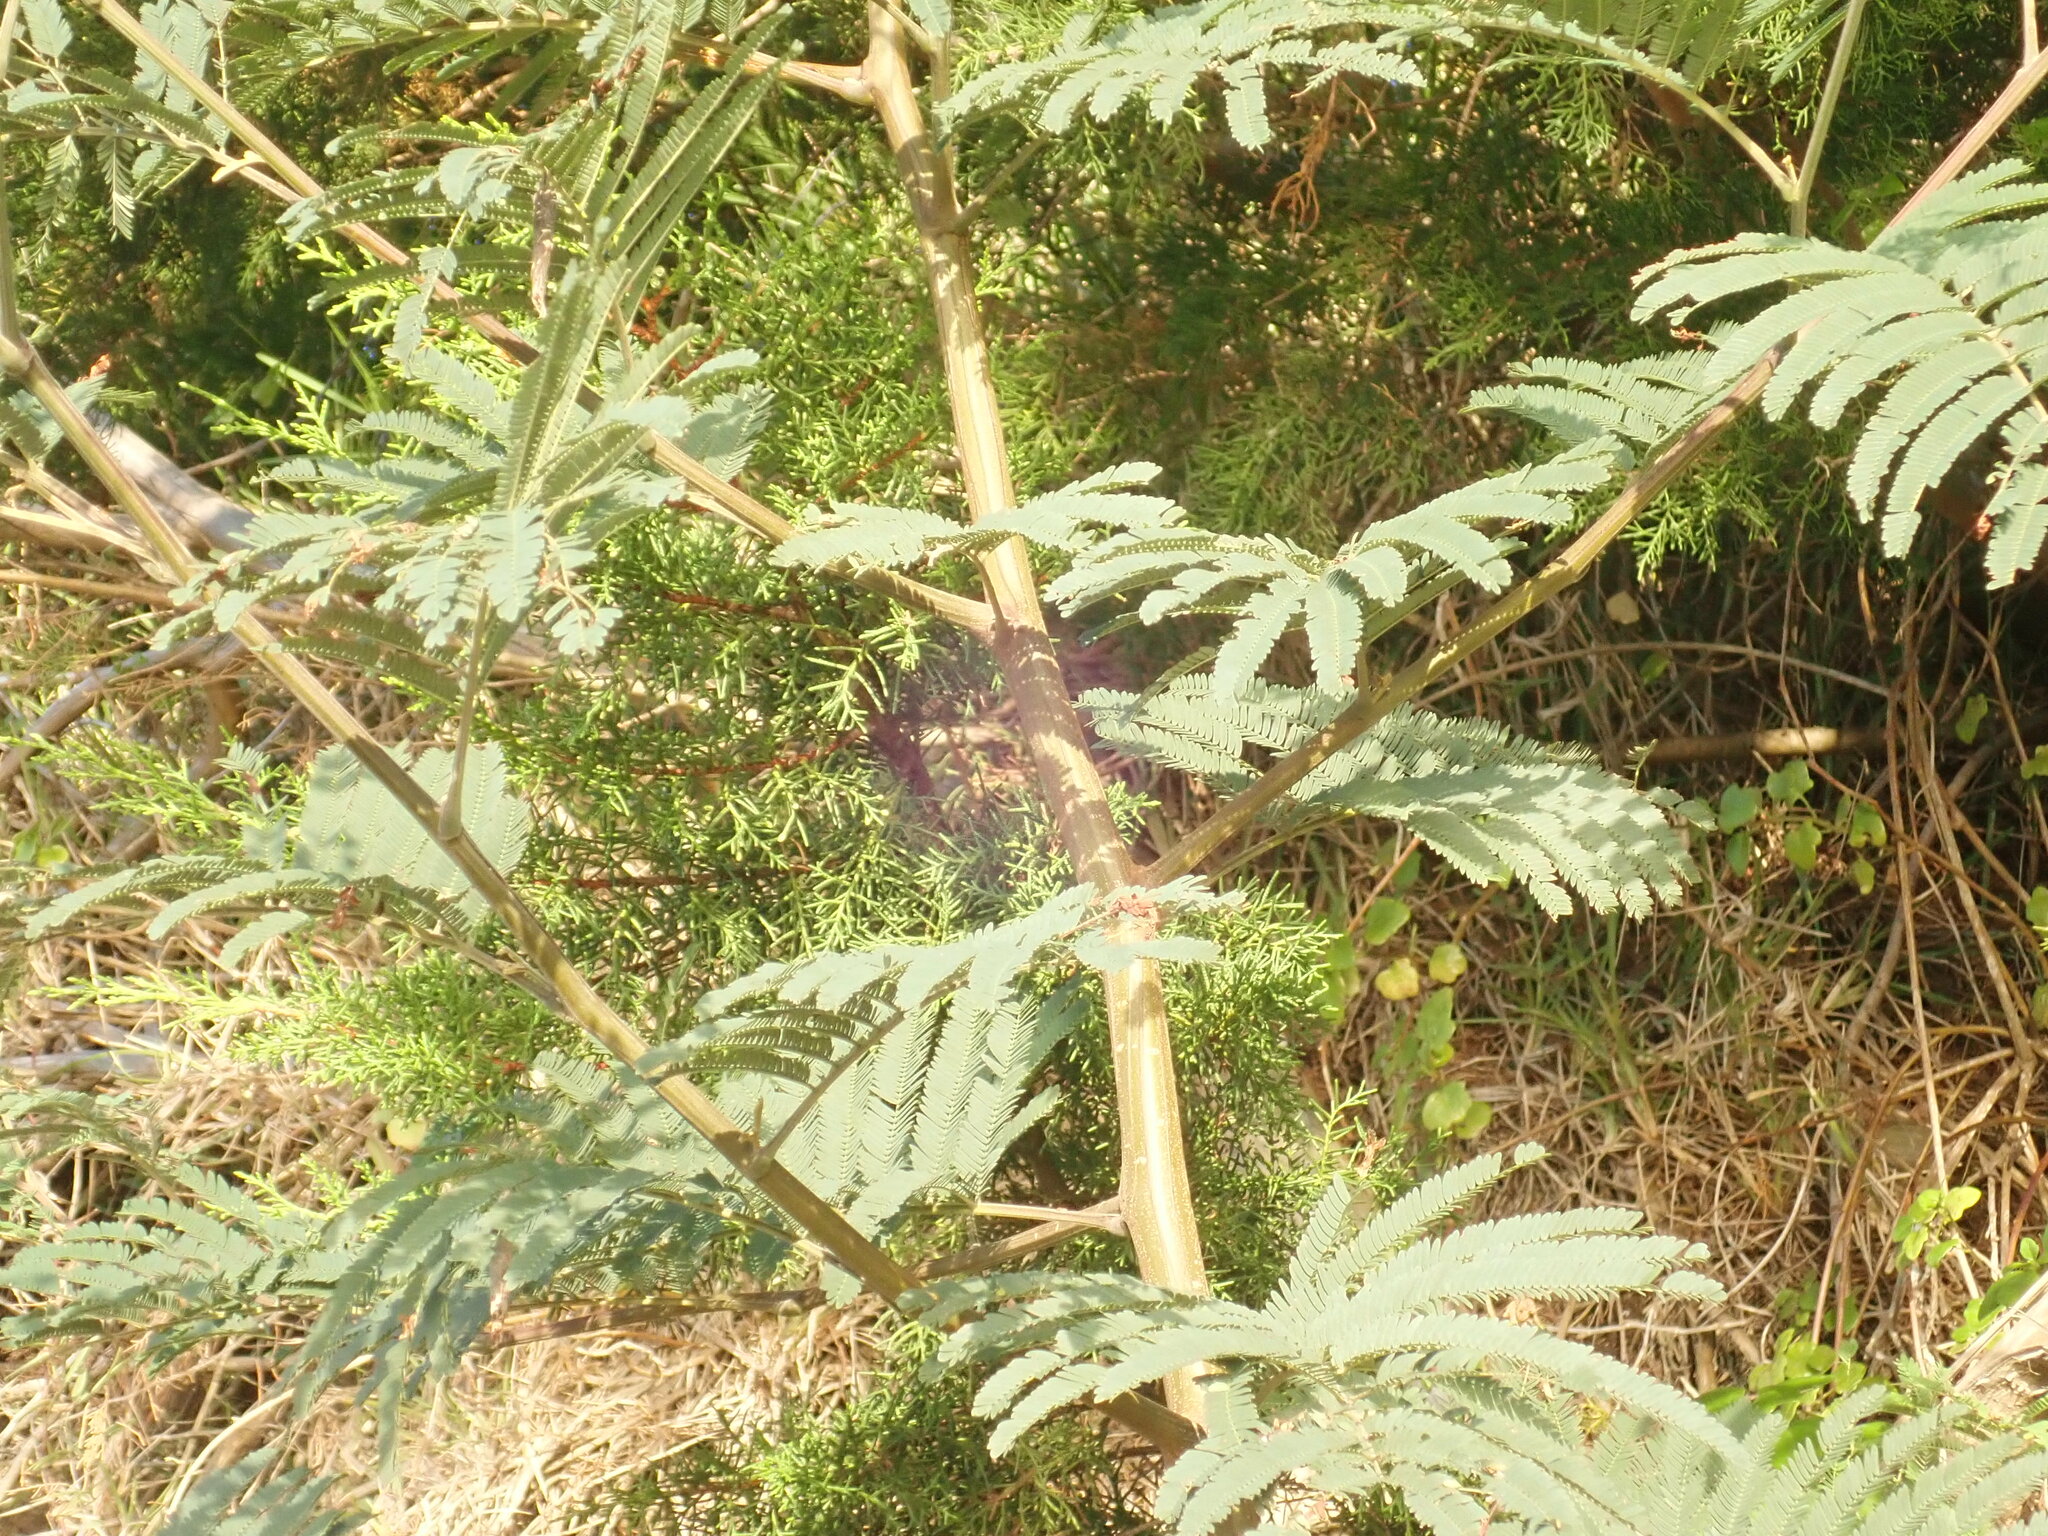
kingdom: Plantae
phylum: Tracheophyta
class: Magnoliopsida
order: Fabales
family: Fabaceae
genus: Paraserianthes
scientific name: Paraserianthes lophantha
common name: Plume albizia
